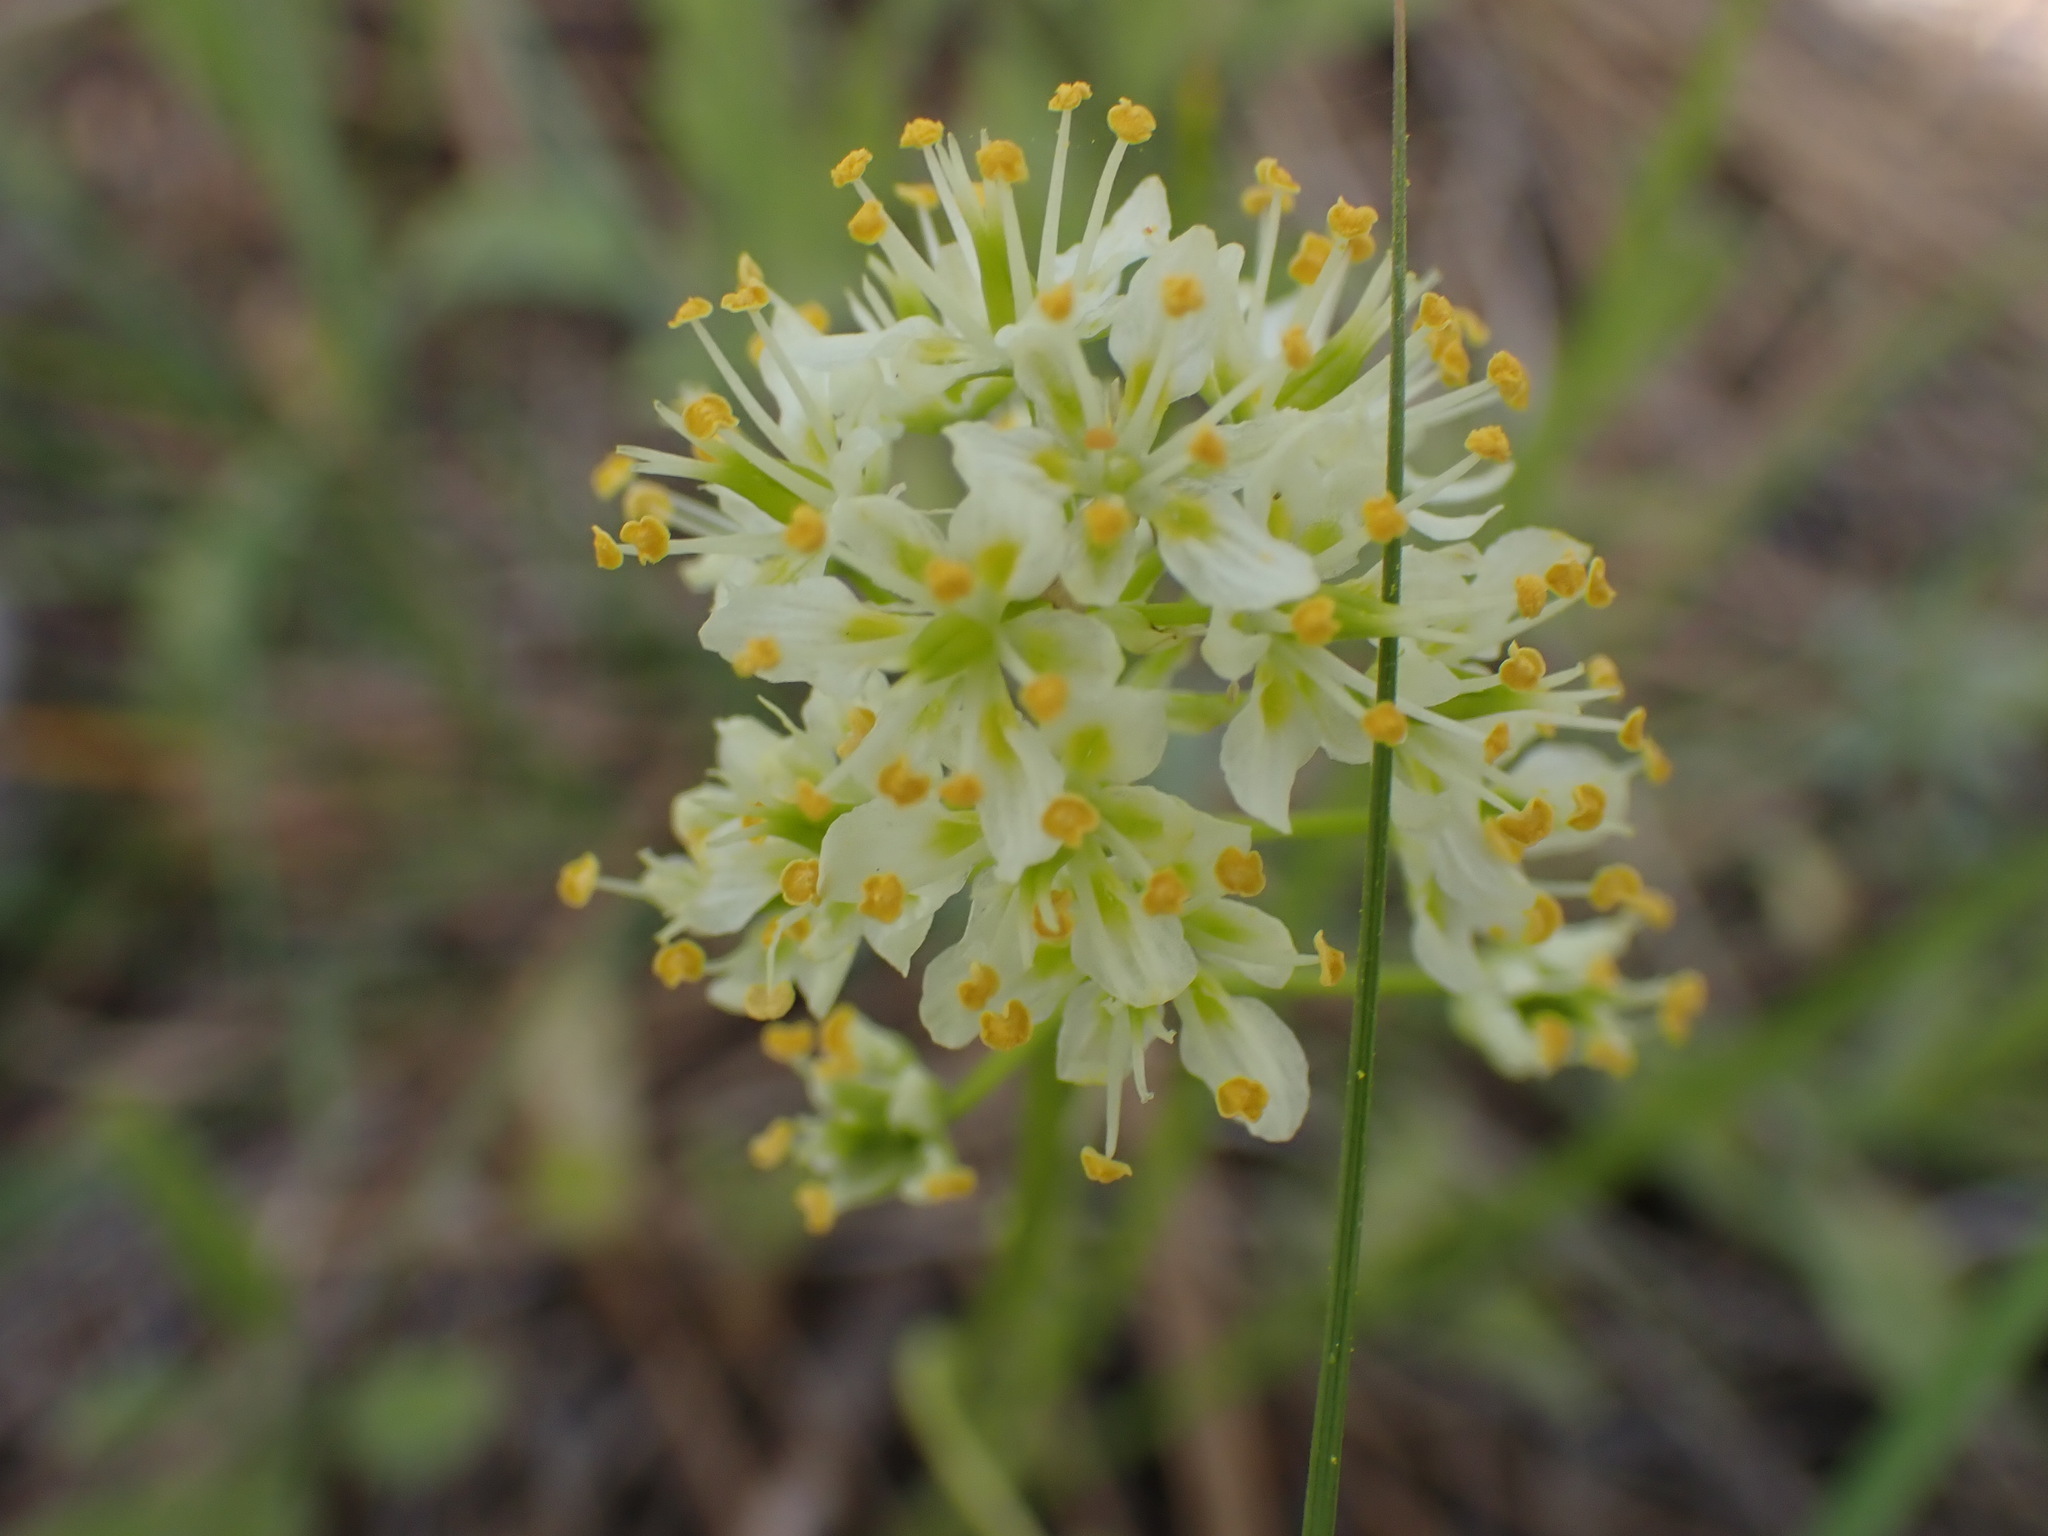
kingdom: Plantae
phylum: Tracheophyta
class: Liliopsida
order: Liliales
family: Melanthiaceae
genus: Toxicoscordion
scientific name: Toxicoscordion venenosum
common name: Meadow death camas
